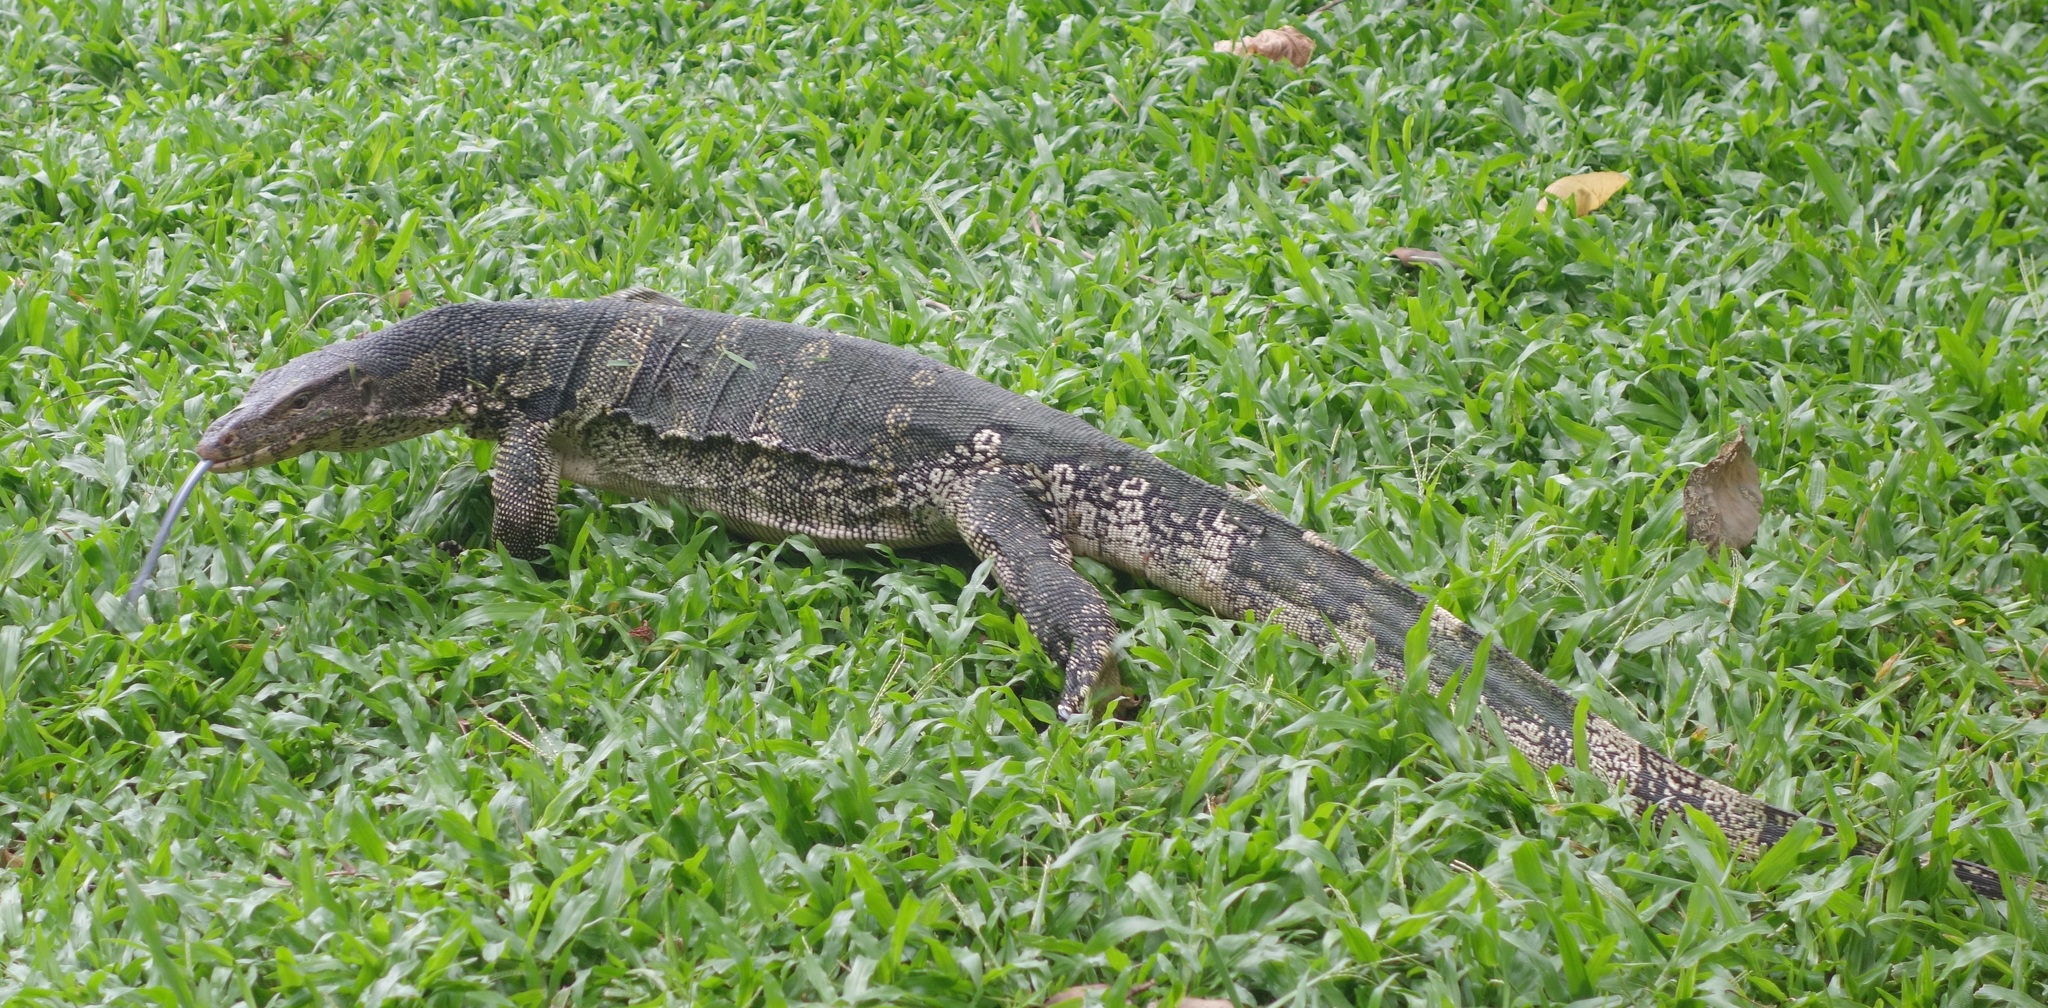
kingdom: Animalia
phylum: Chordata
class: Squamata
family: Varanidae
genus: Varanus
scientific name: Varanus salvator
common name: Common water monitor
